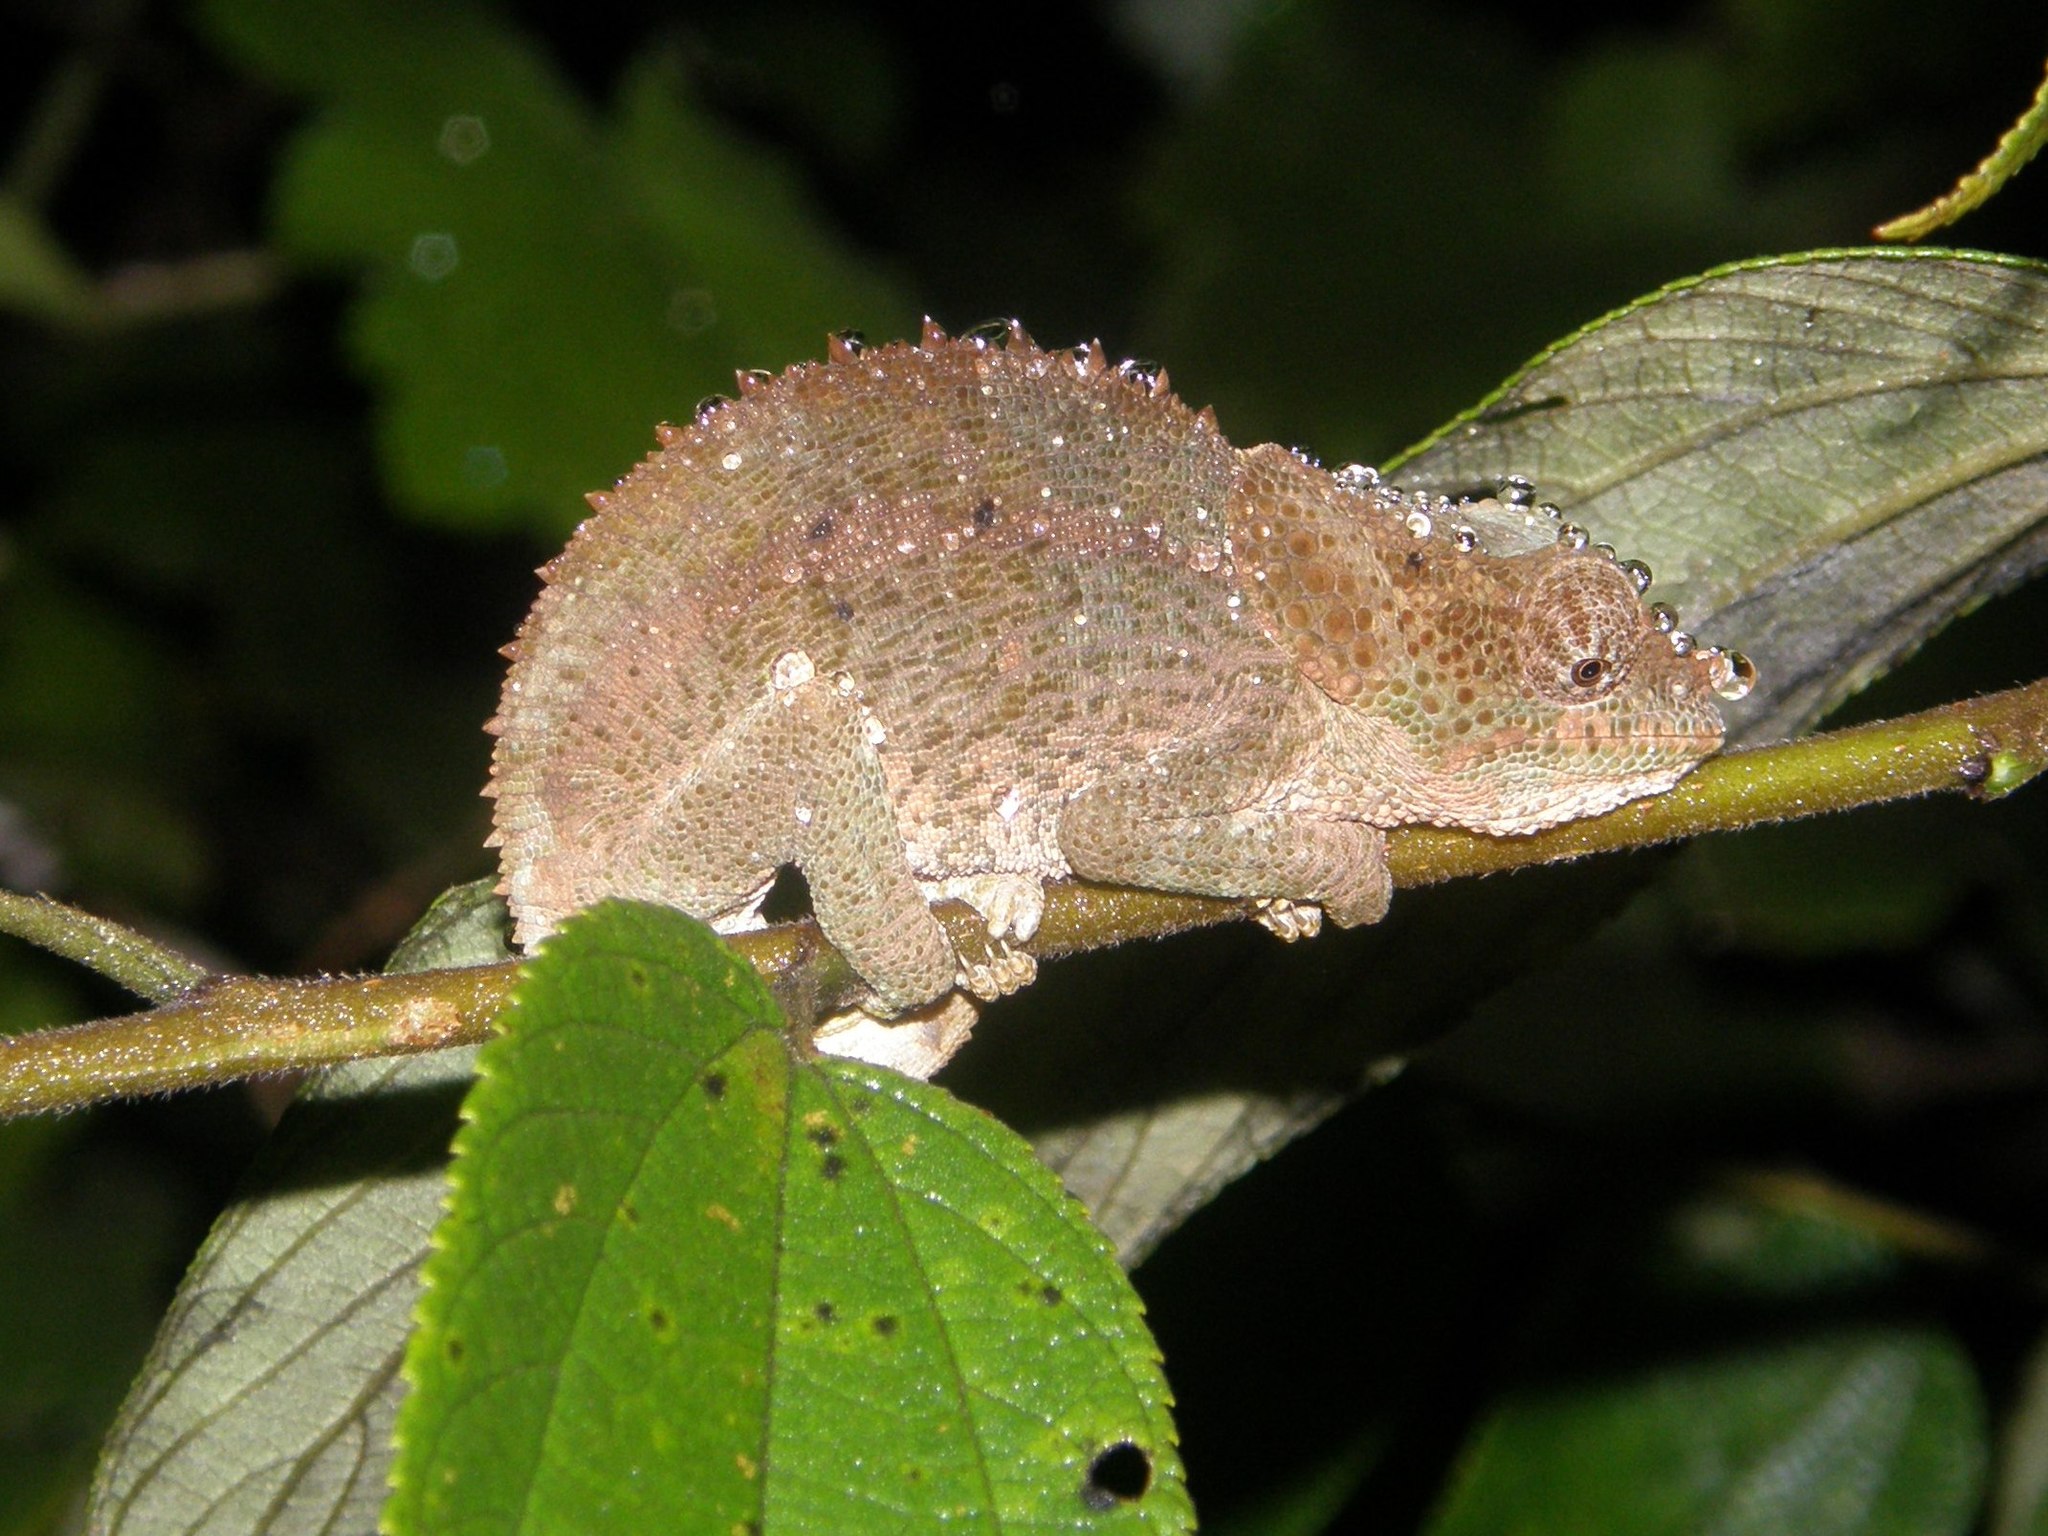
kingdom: Animalia
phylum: Chordata
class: Squamata
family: Chamaeleonidae
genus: Calumma
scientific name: Calumma brevicorne
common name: Short-horned chameleon
